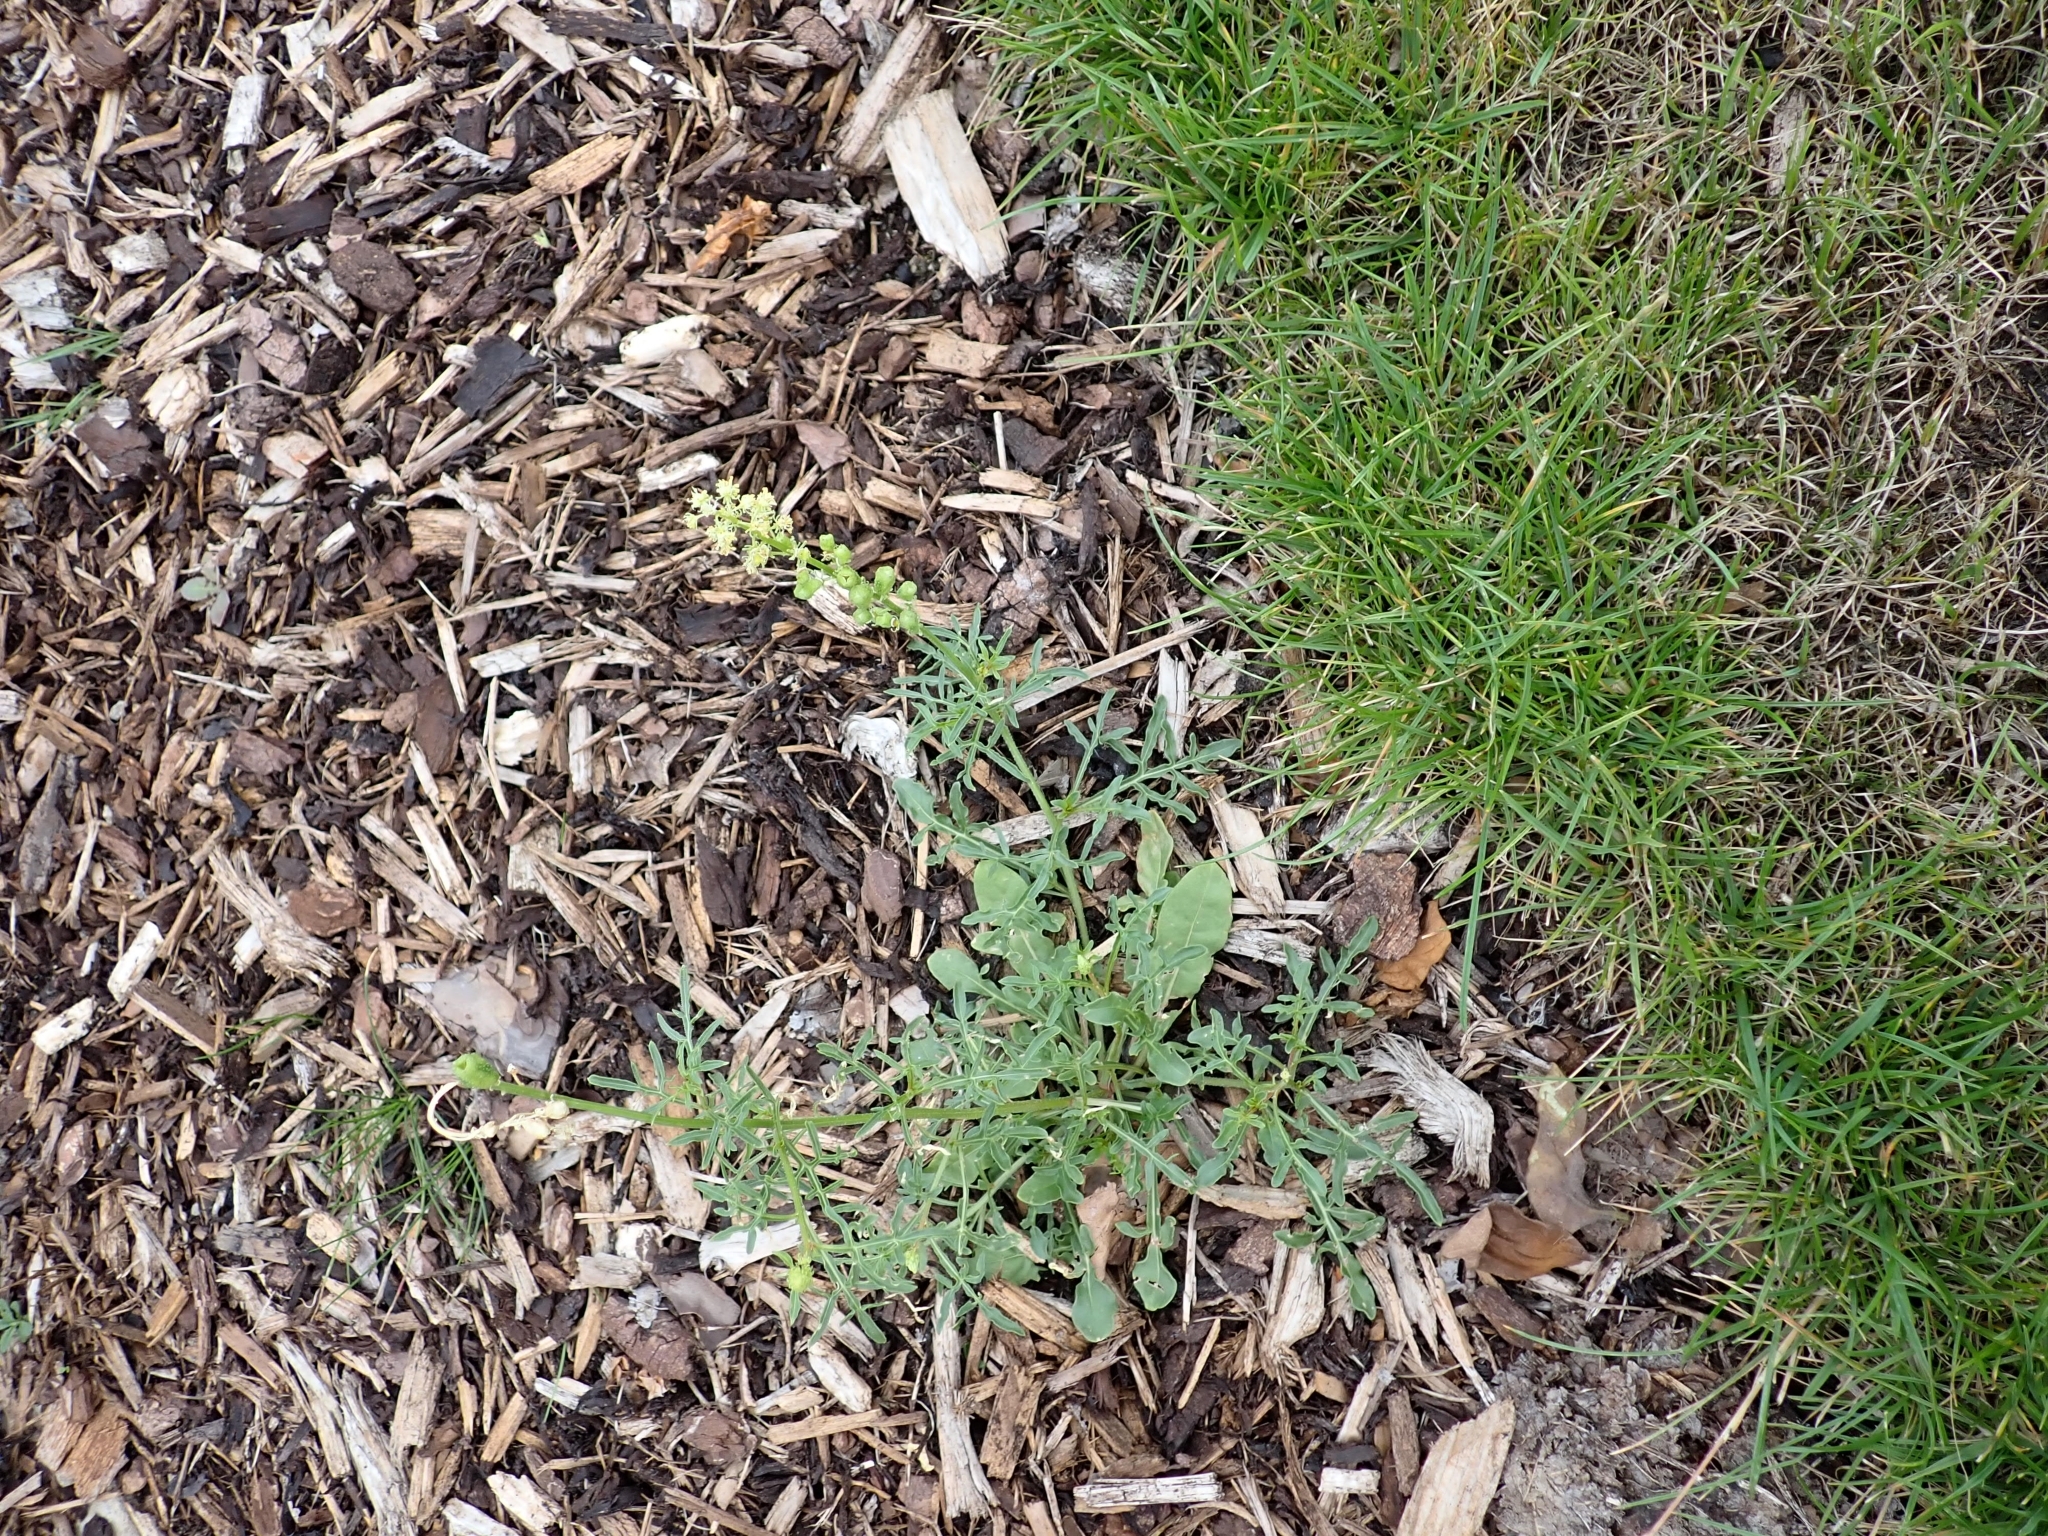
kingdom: Plantae
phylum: Tracheophyta
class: Magnoliopsida
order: Brassicales
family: Resedaceae
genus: Reseda
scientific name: Reseda lutea
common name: Wild mignonette
